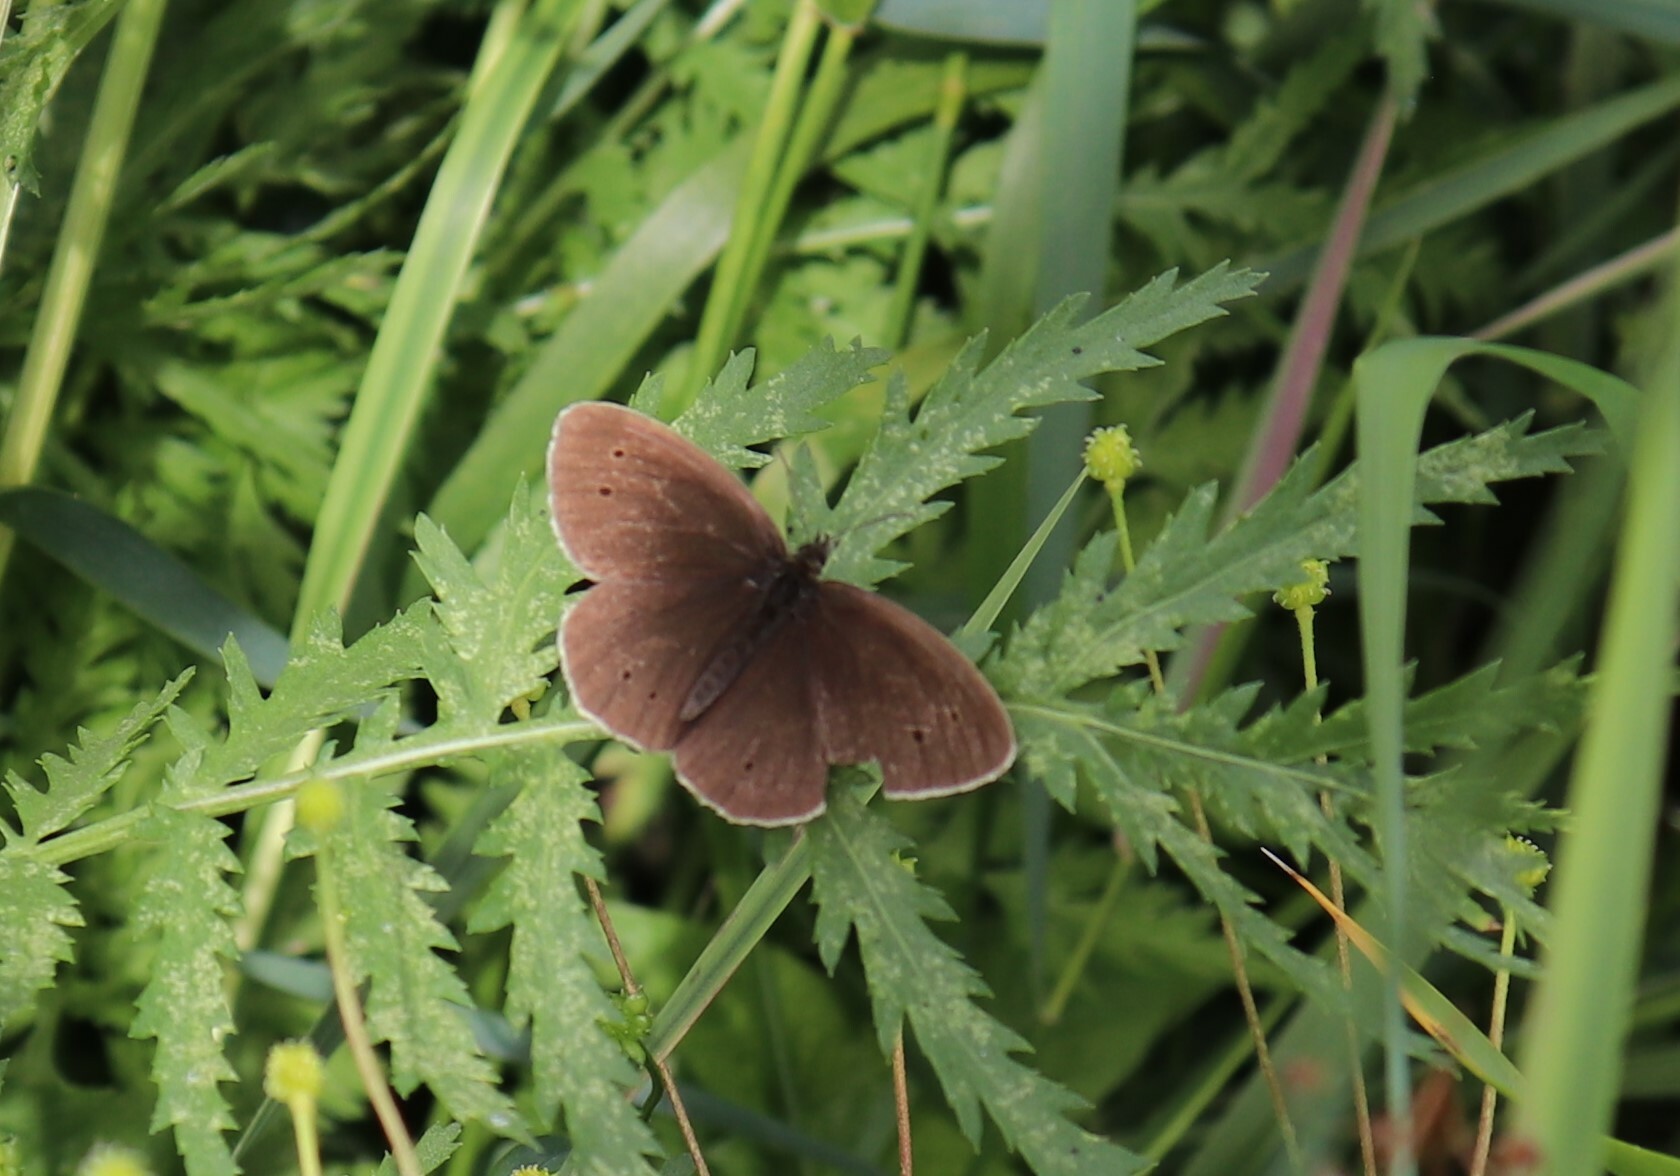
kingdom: Animalia
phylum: Arthropoda
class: Insecta
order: Lepidoptera
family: Nymphalidae
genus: Aphantopus
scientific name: Aphantopus hyperantus
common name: Ringlet
